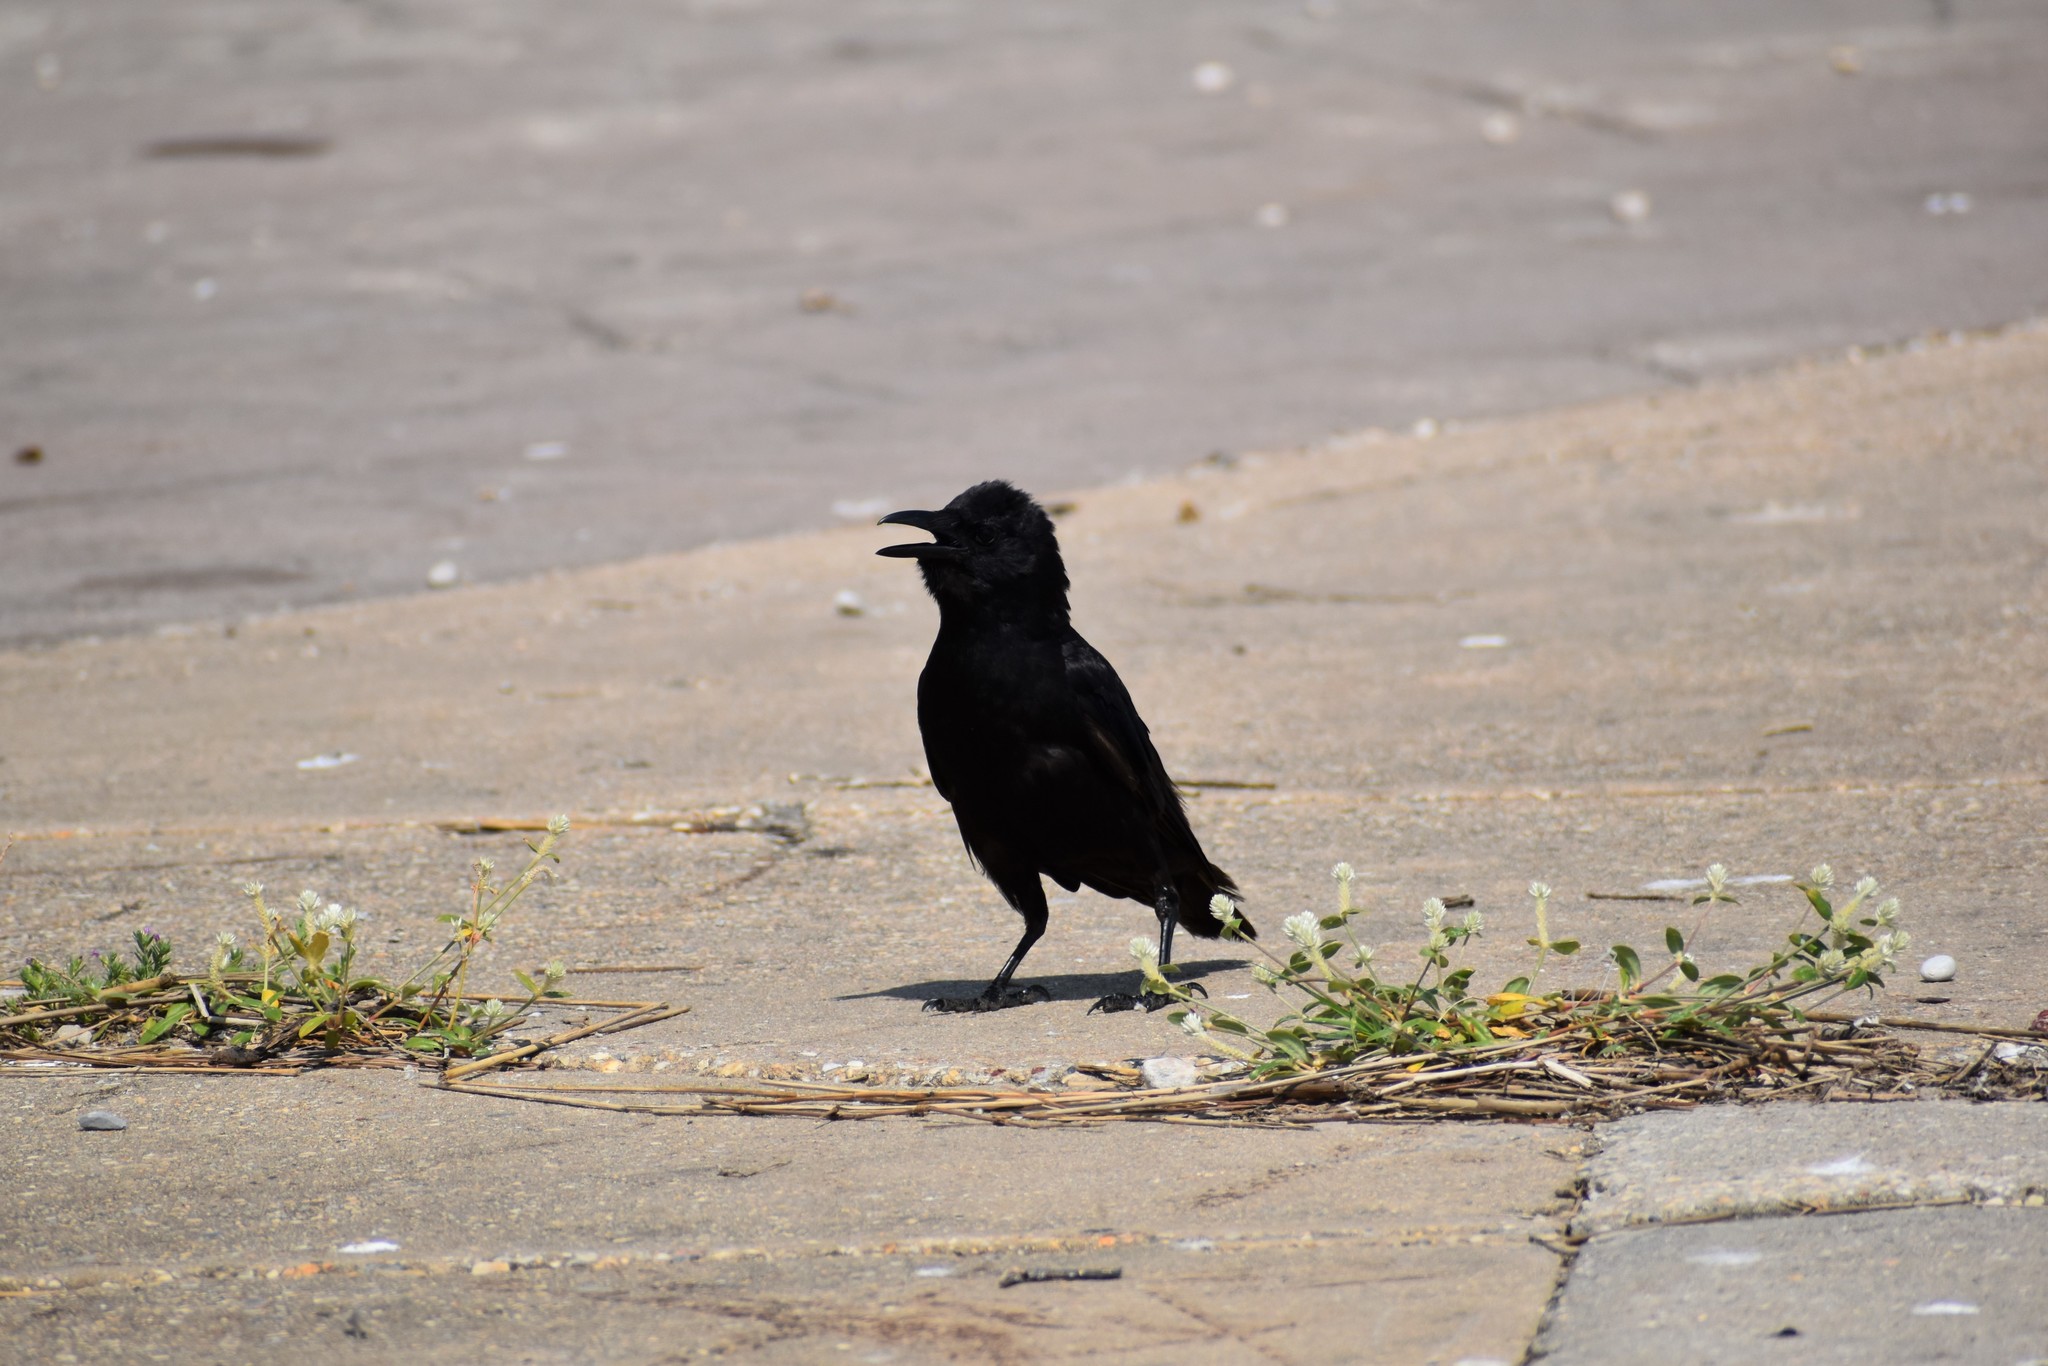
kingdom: Animalia
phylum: Chordata
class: Aves
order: Passeriformes
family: Corvidae
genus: Corvus
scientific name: Corvus ossifragus
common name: Fish crow
